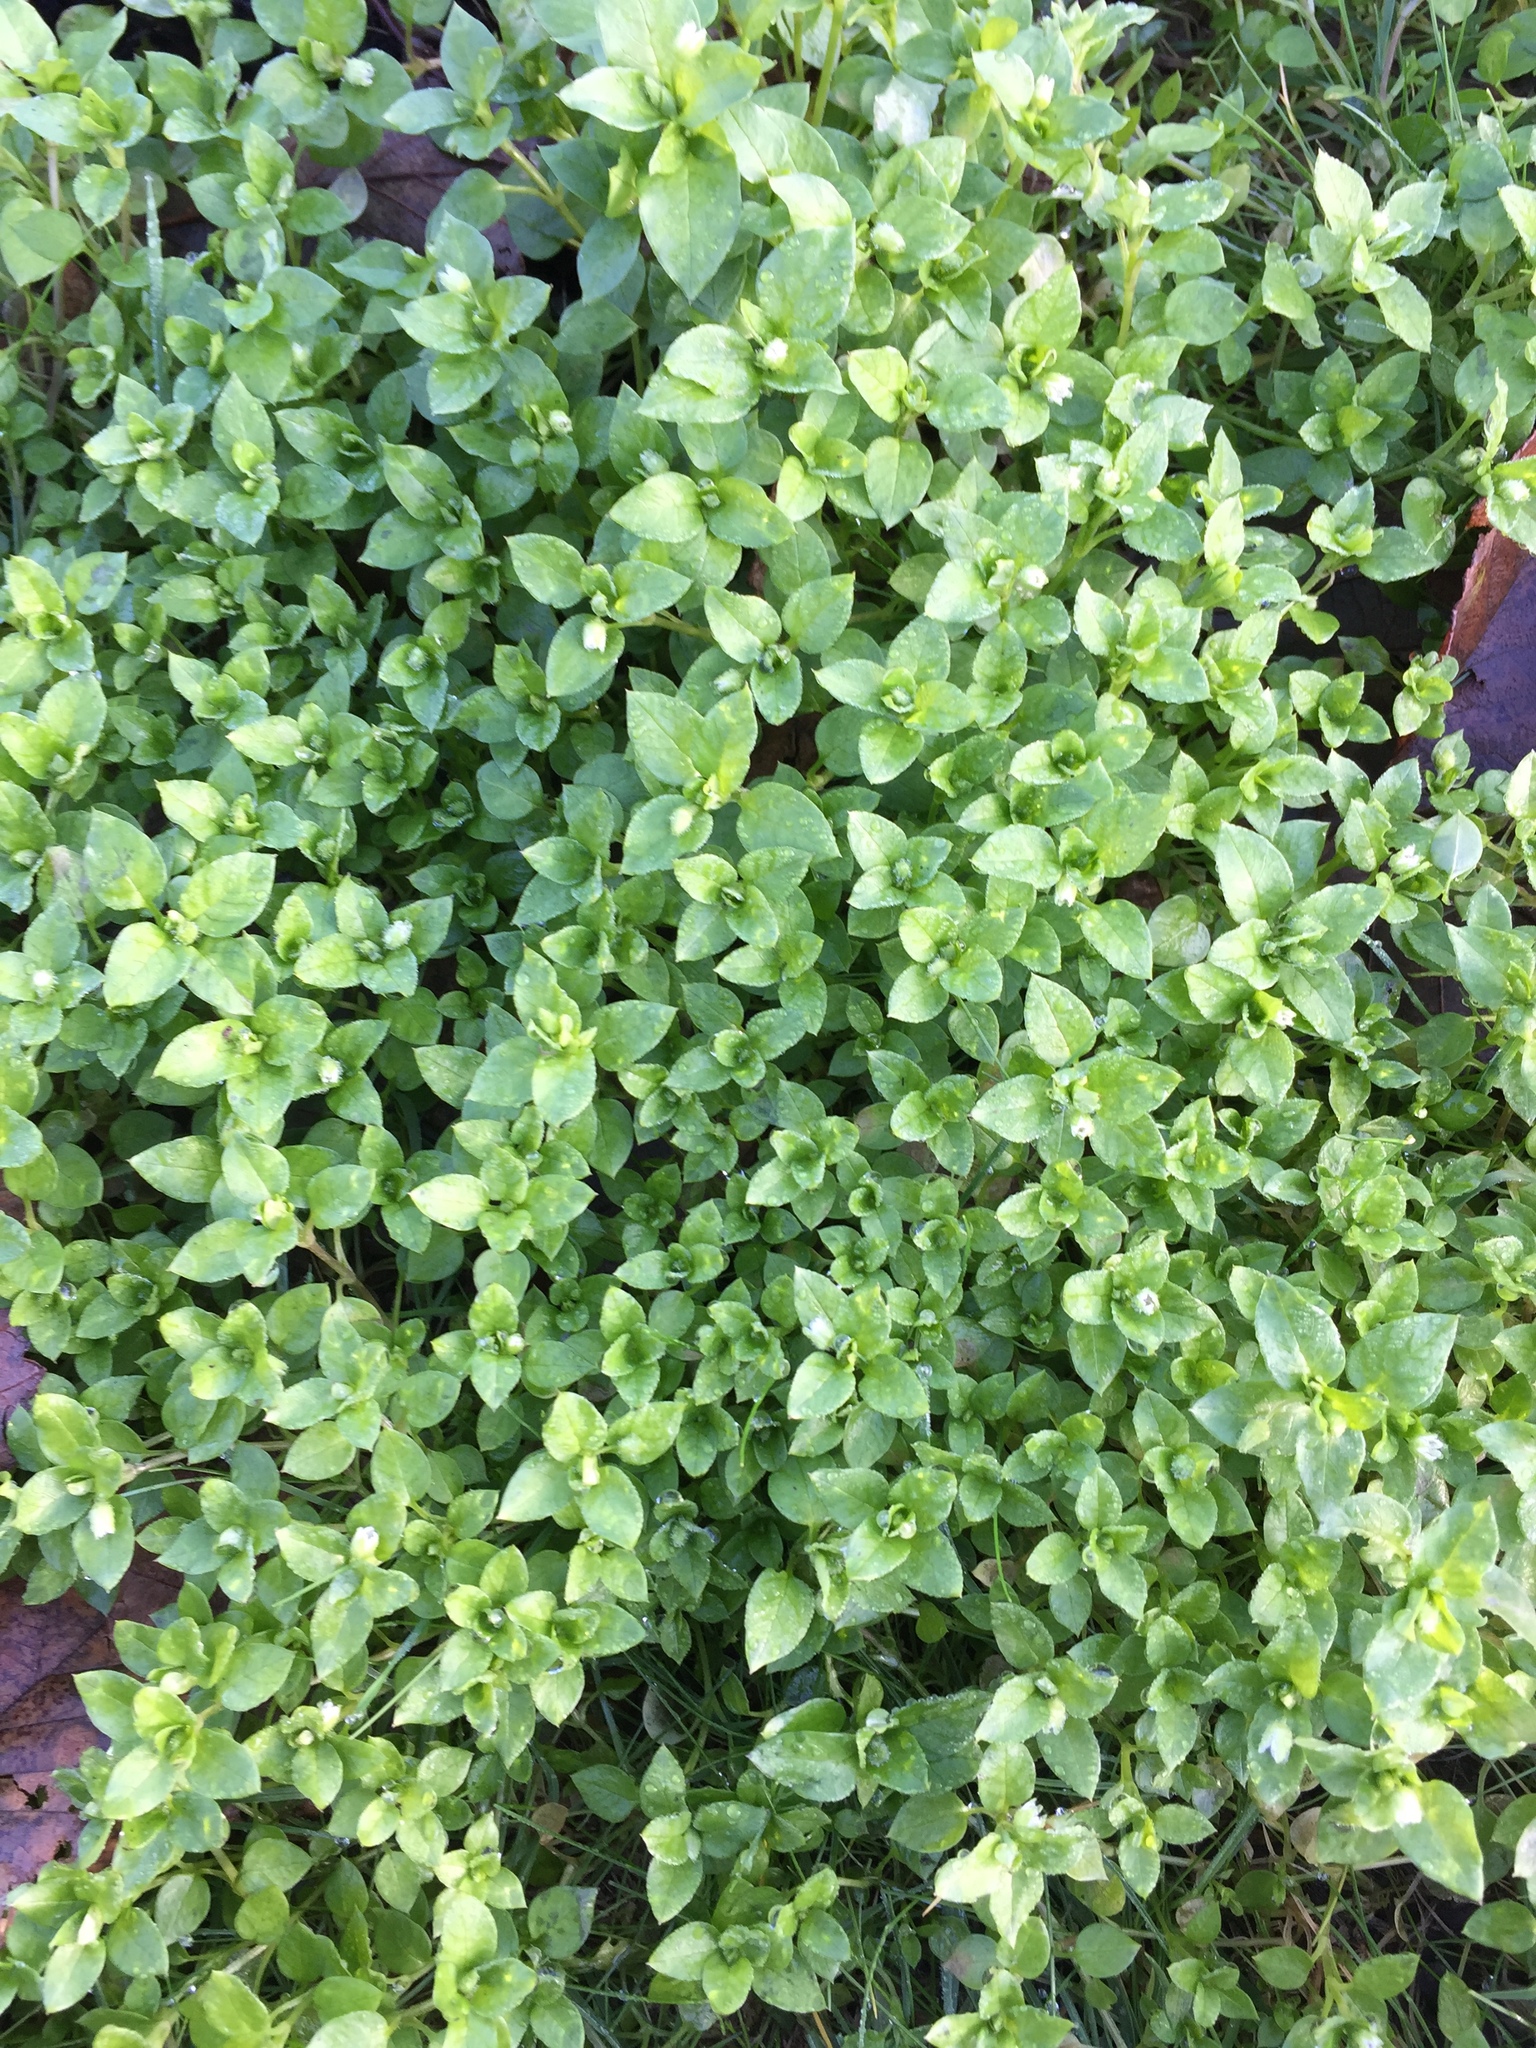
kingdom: Plantae
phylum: Tracheophyta
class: Magnoliopsida
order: Caryophyllales
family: Caryophyllaceae
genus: Stellaria
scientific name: Stellaria media
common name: Common chickweed
